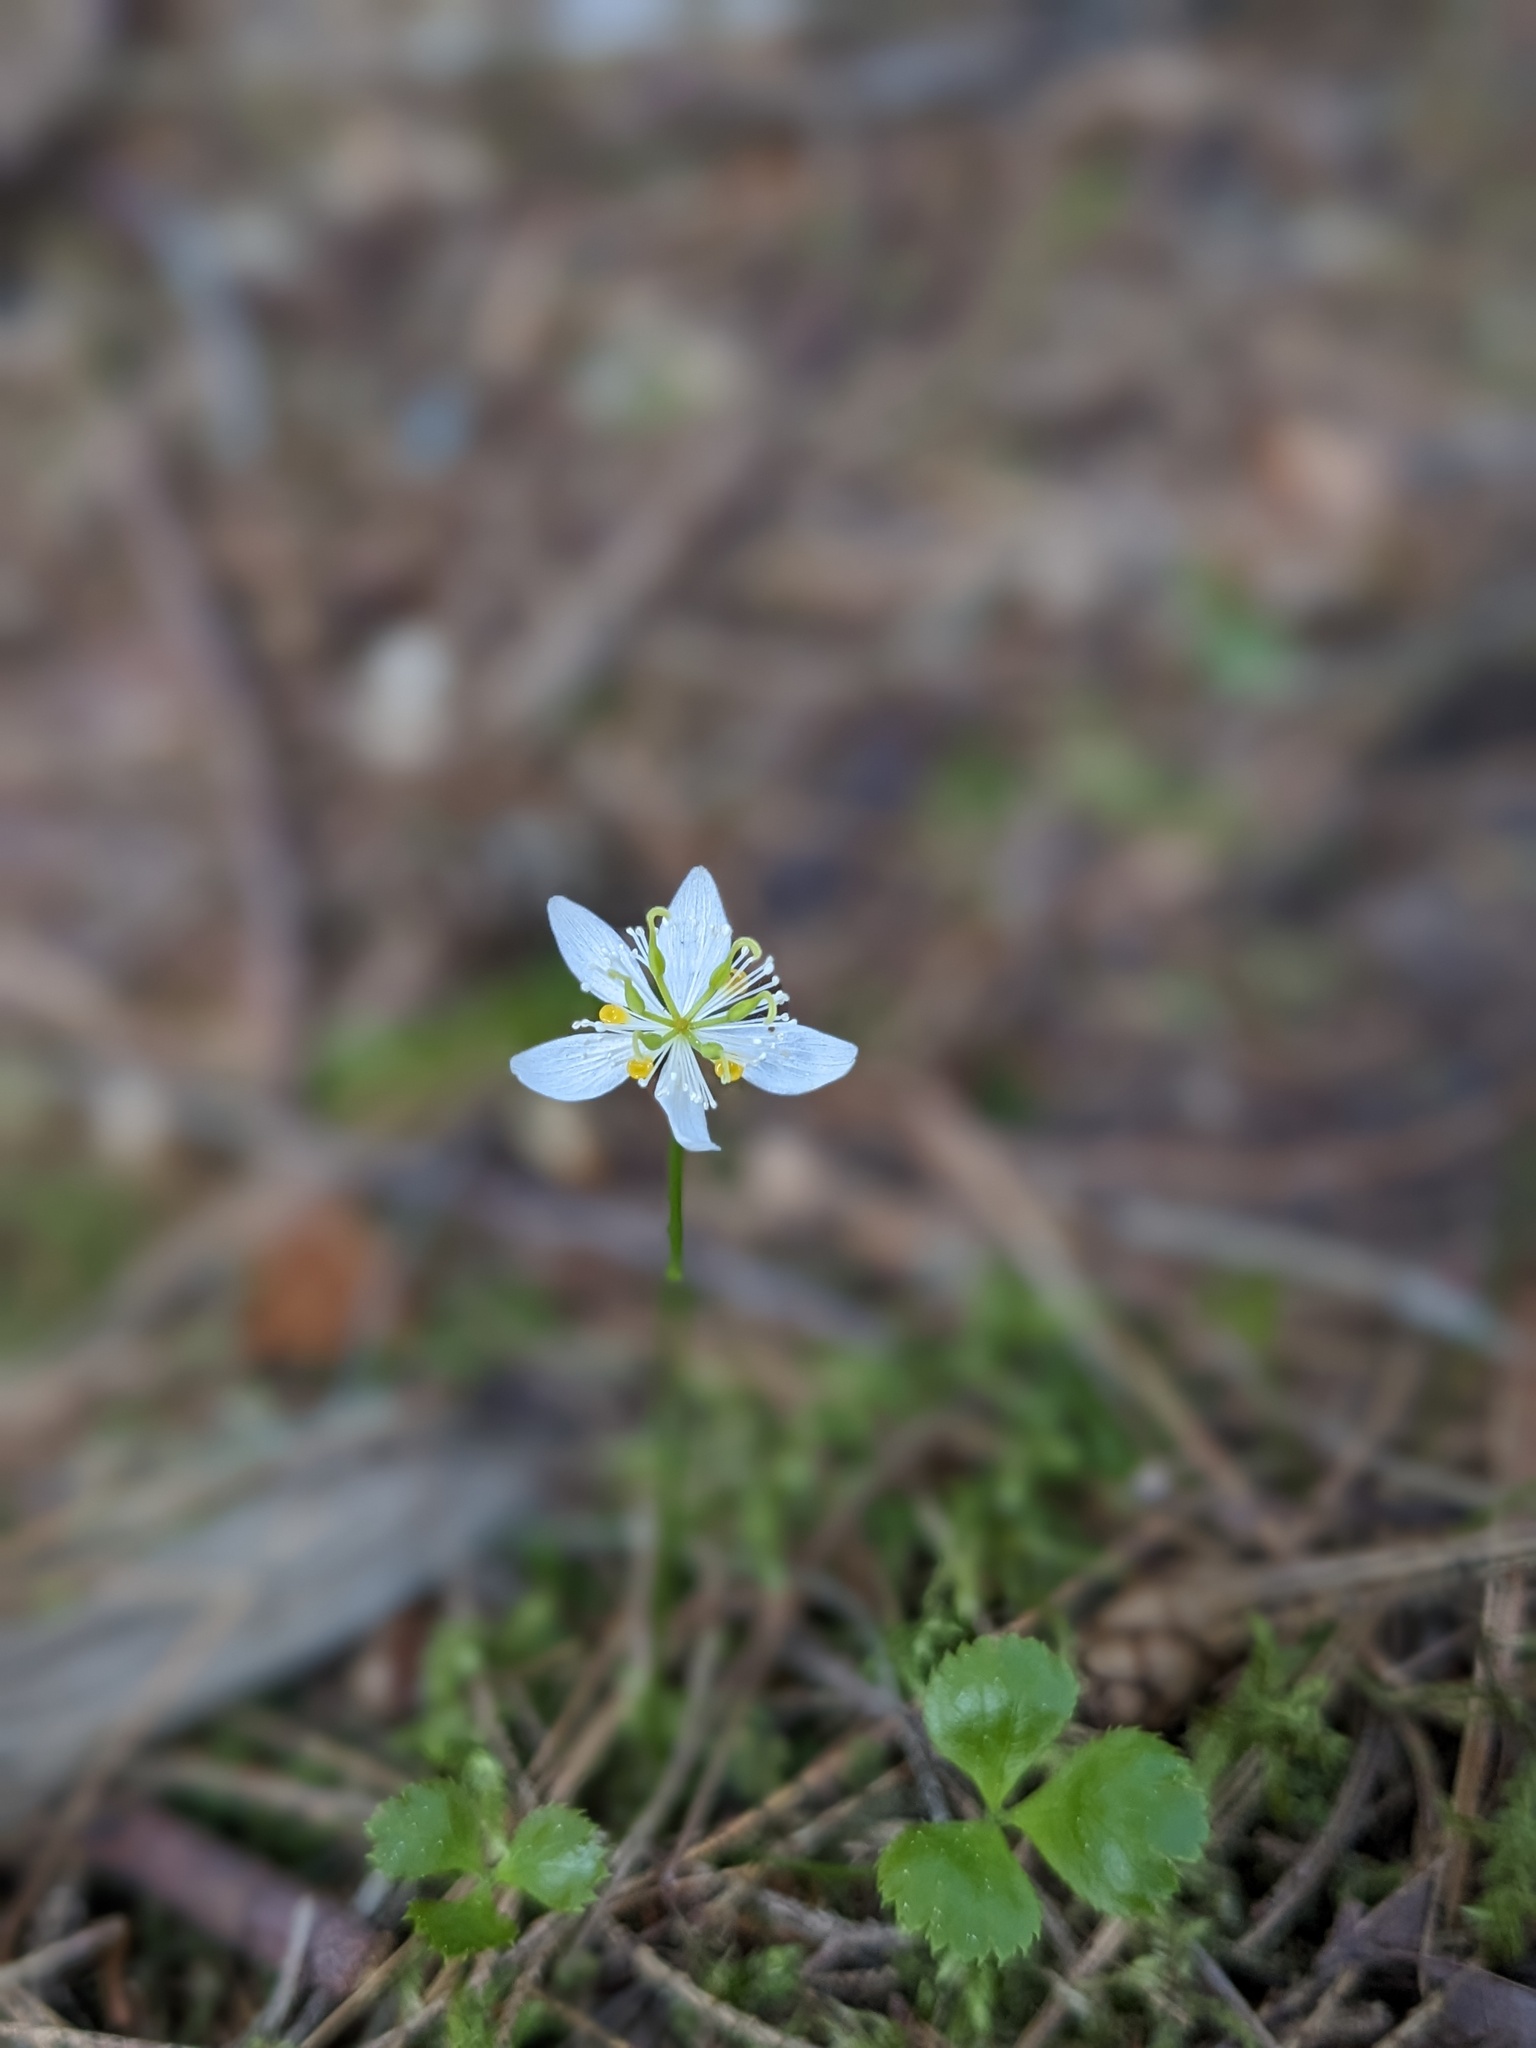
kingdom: Plantae
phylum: Tracheophyta
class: Magnoliopsida
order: Ranunculales
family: Ranunculaceae
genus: Coptis
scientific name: Coptis trifolia
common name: Canker-root
